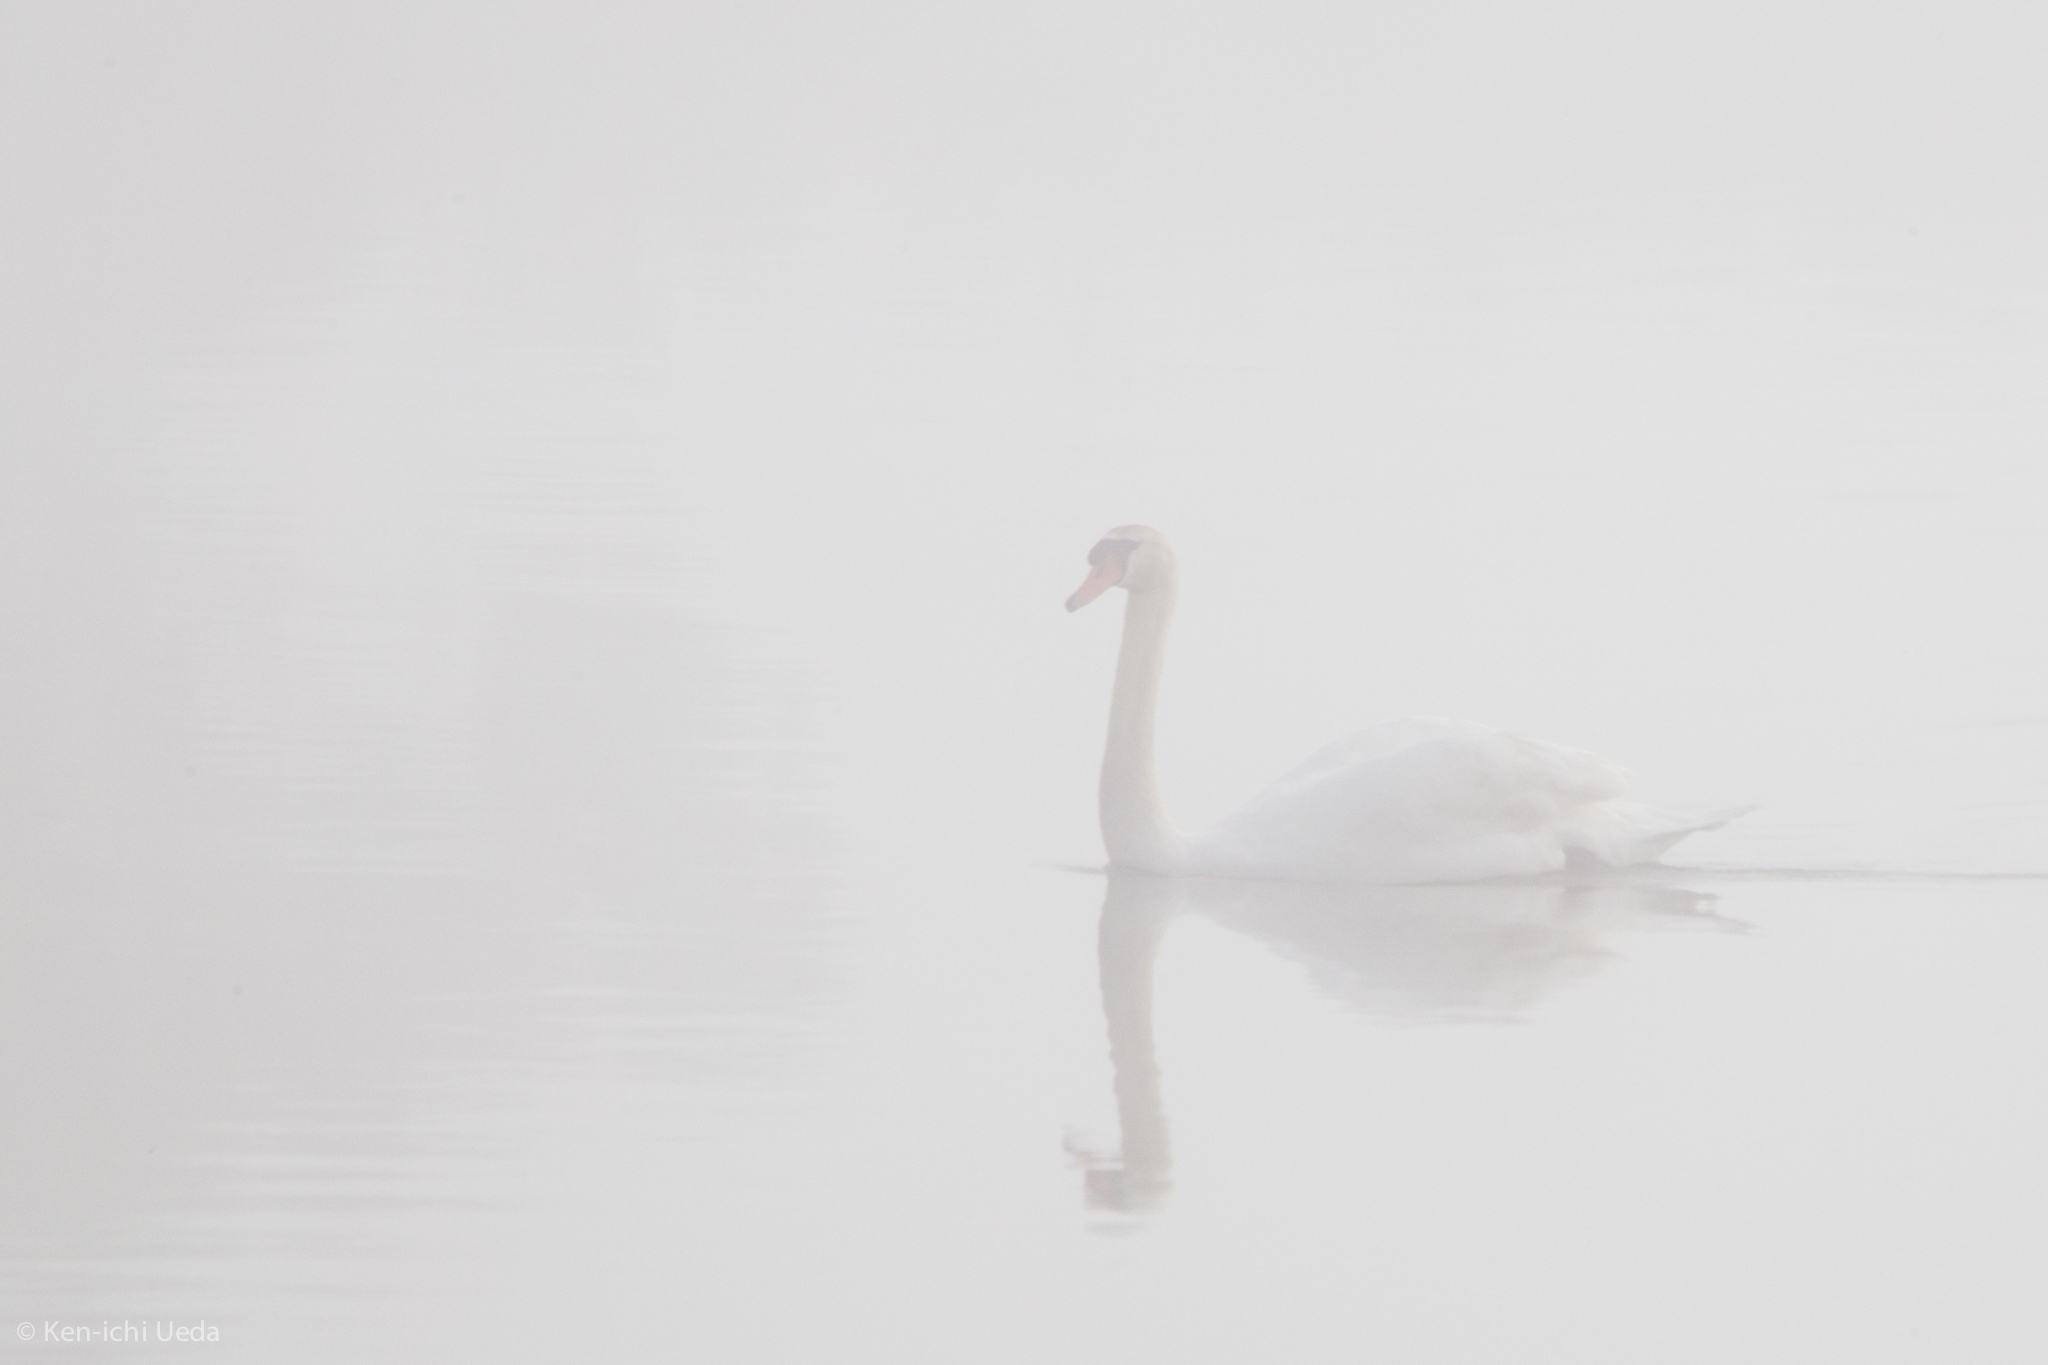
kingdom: Animalia
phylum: Chordata
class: Aves
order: Anseriformes
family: Anatidae
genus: Cygnus
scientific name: Cygnus olor
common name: Mute swan
